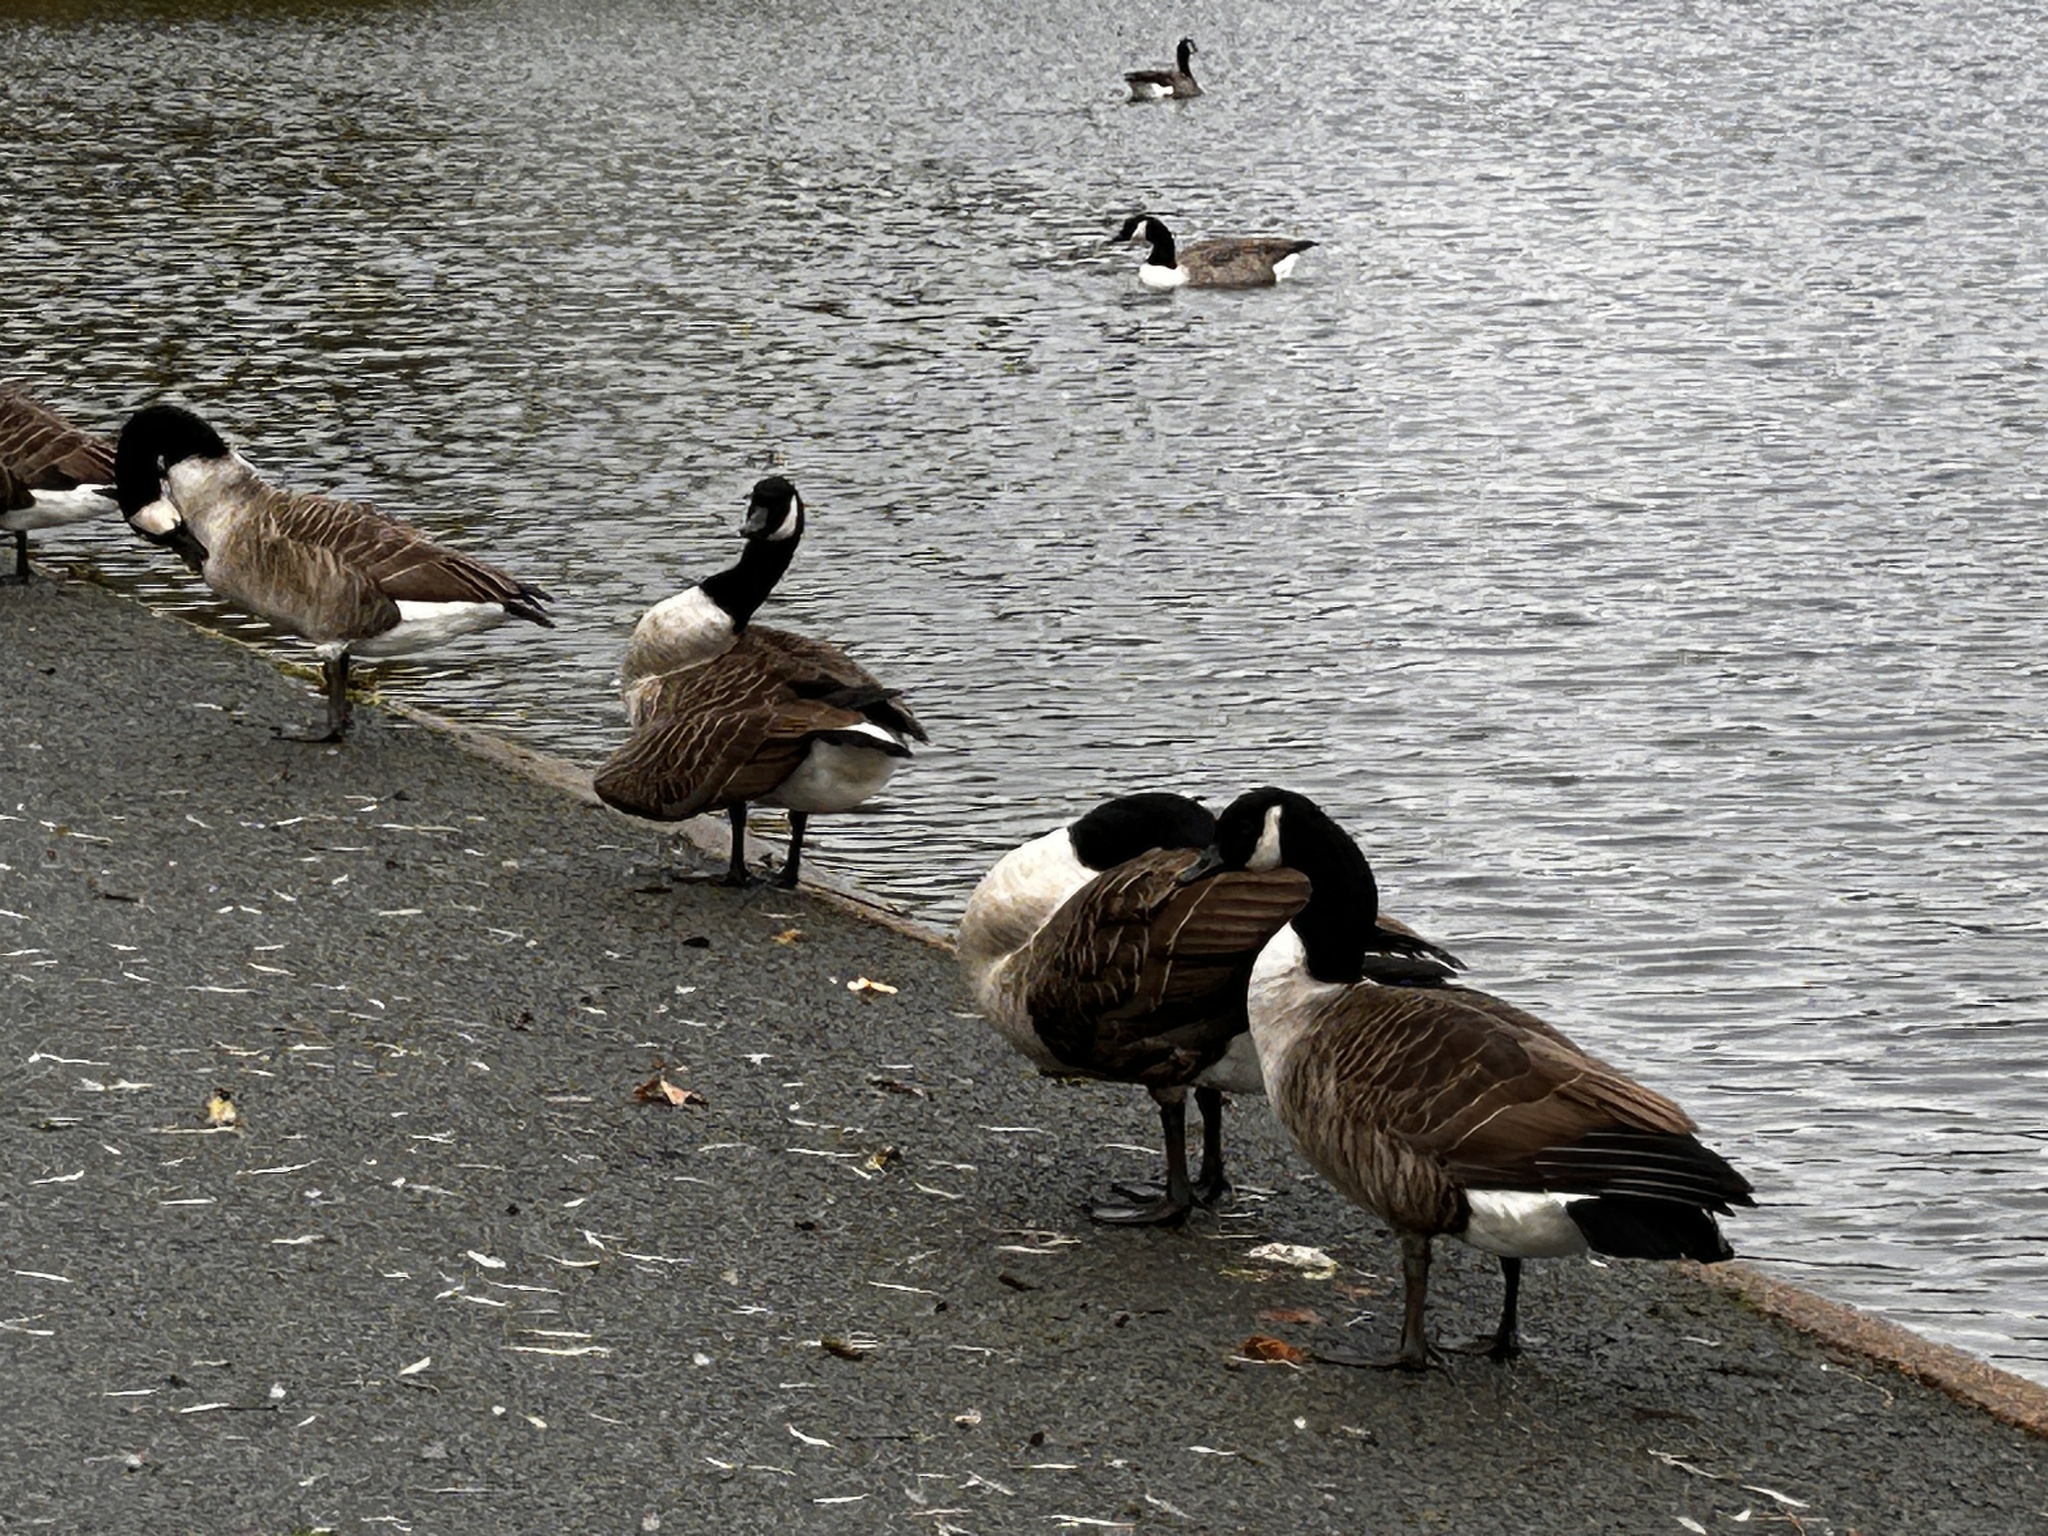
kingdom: Animalia
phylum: Chordata
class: Aves
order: Anseriformes
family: Anatidae
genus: Branta
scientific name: Branta canadensis
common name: Canada goose
